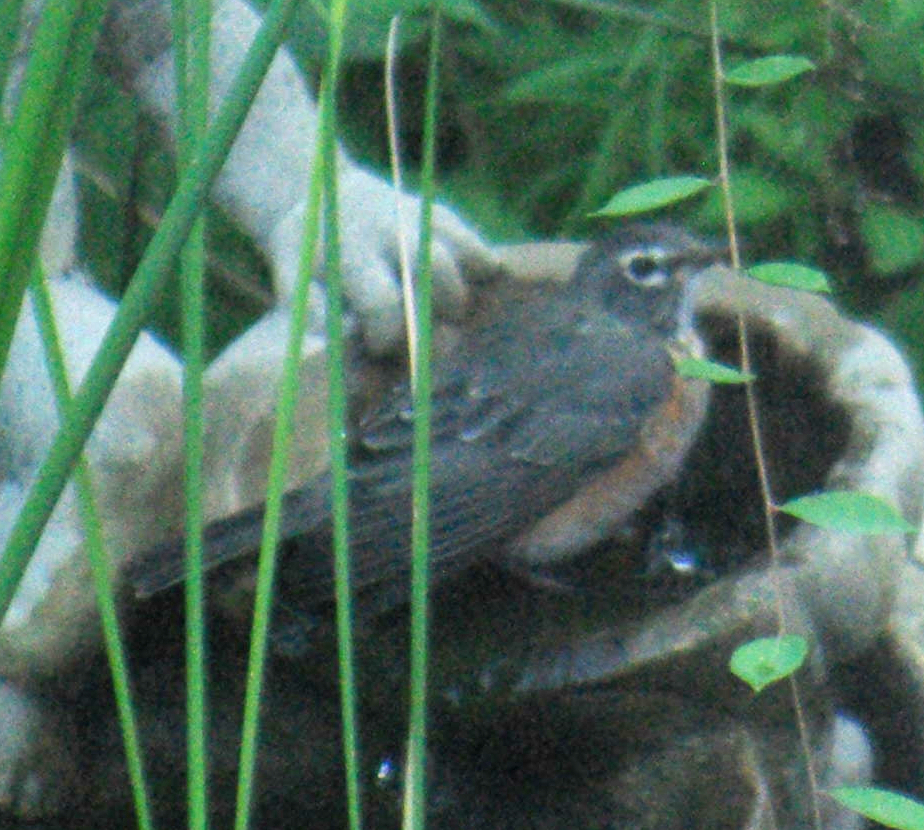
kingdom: Animalia
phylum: Chordata
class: Aves
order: Passeriformes
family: Turdidae
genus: Turdus
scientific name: Turdus migratorius
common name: American robin
